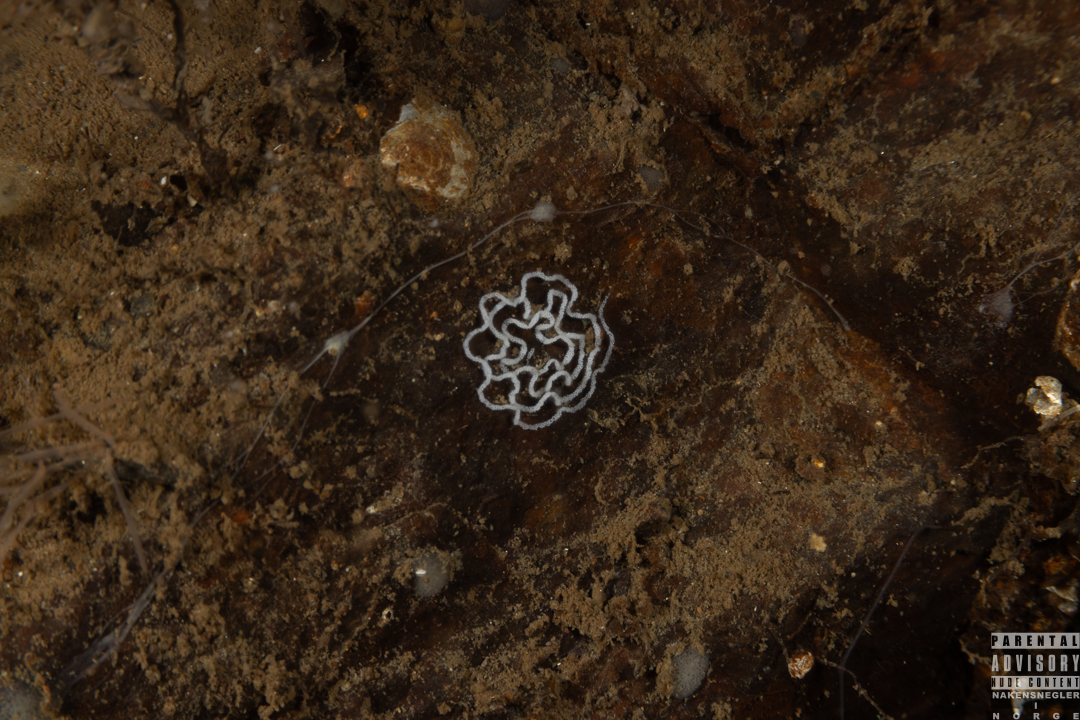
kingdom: Animalia
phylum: Mollusca
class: Gastropoda
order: Nudibranchia
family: Tritoniidae
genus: Duvaucelia
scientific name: Duvaucelia plebeia
